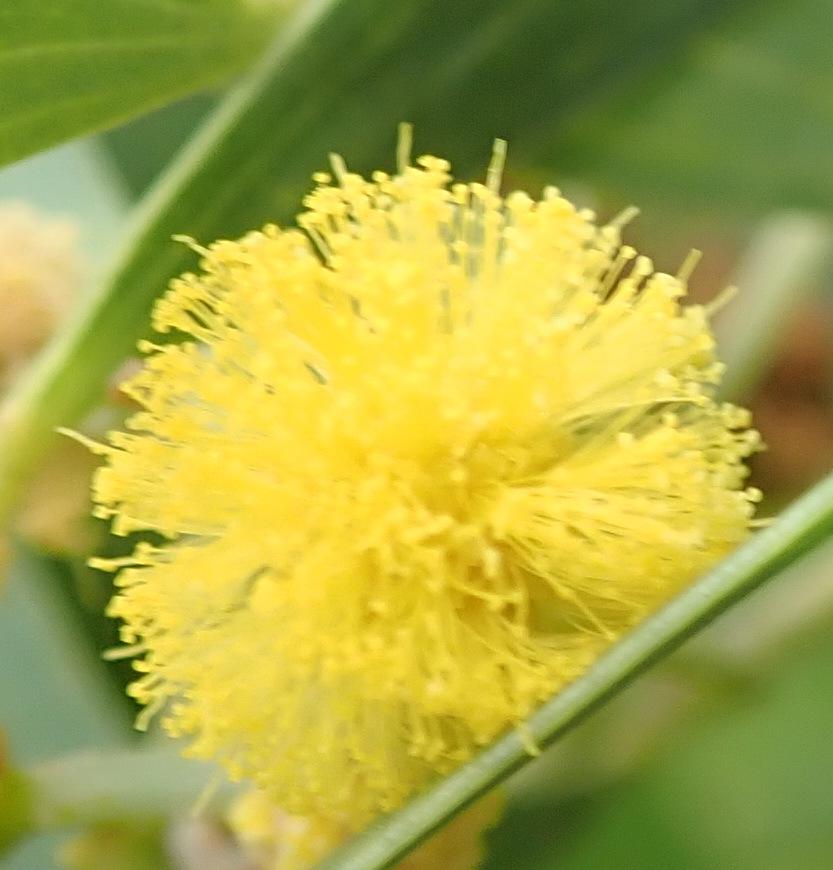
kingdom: Plantae
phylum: Tracheophyta
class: Magnoliopsida
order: Fabales
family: Fabaceae
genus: Acacia
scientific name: Acacia cyclops
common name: Coastal wattle
